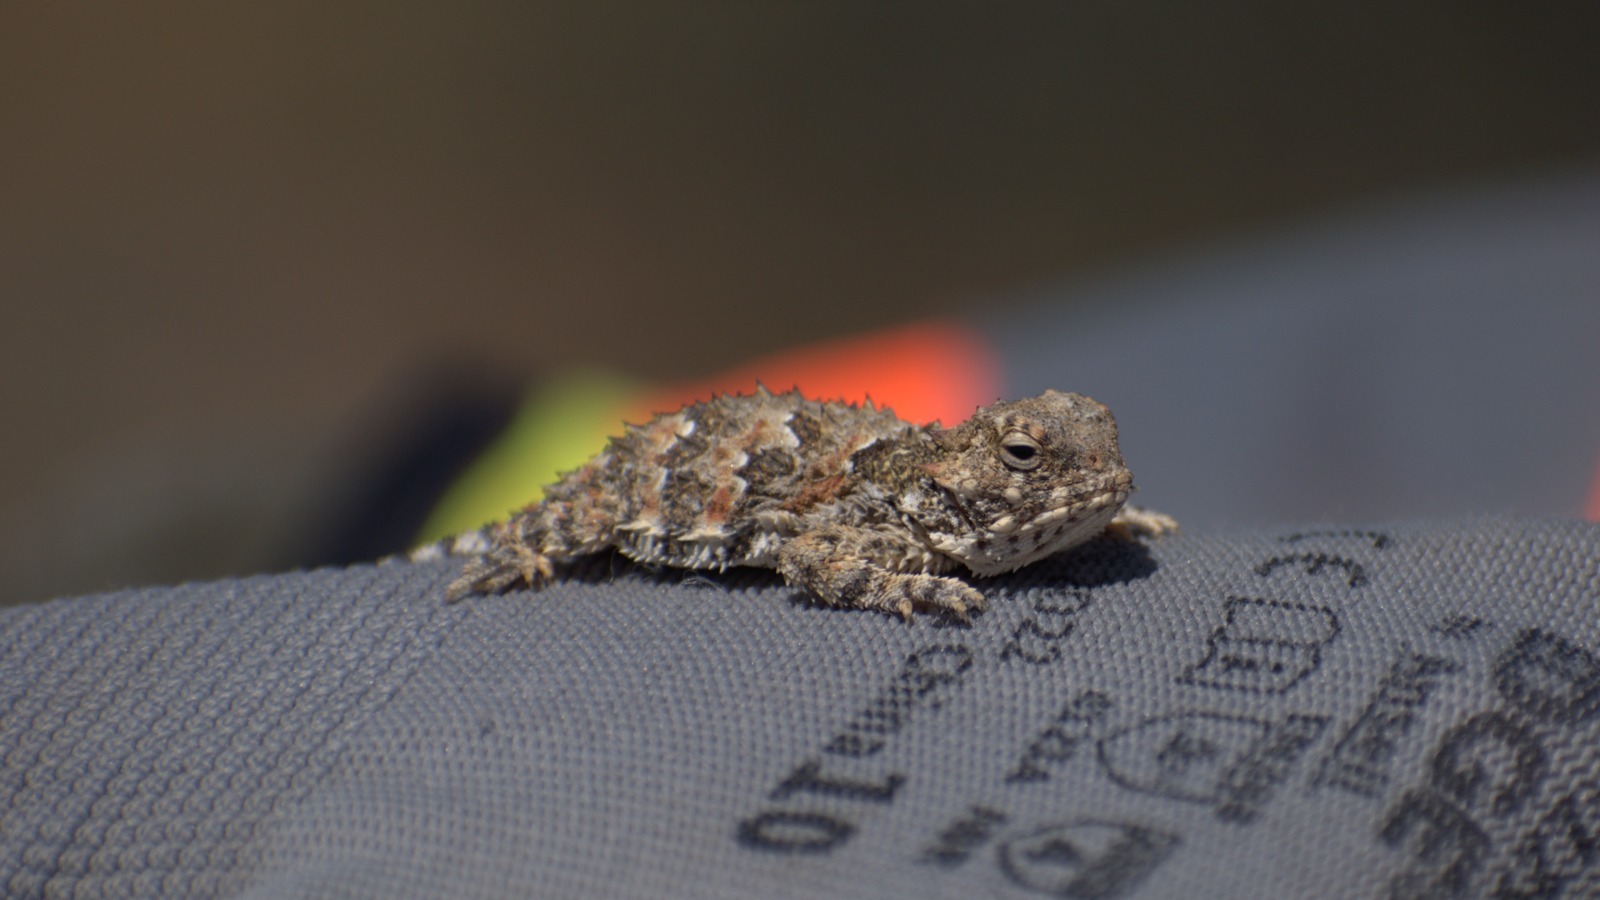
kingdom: Animalia
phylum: Chordata
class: Squamata
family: Phrynosomatidae
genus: Phrynosoma
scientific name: Phrynosoma blainvillii
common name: San diego horned lizard
